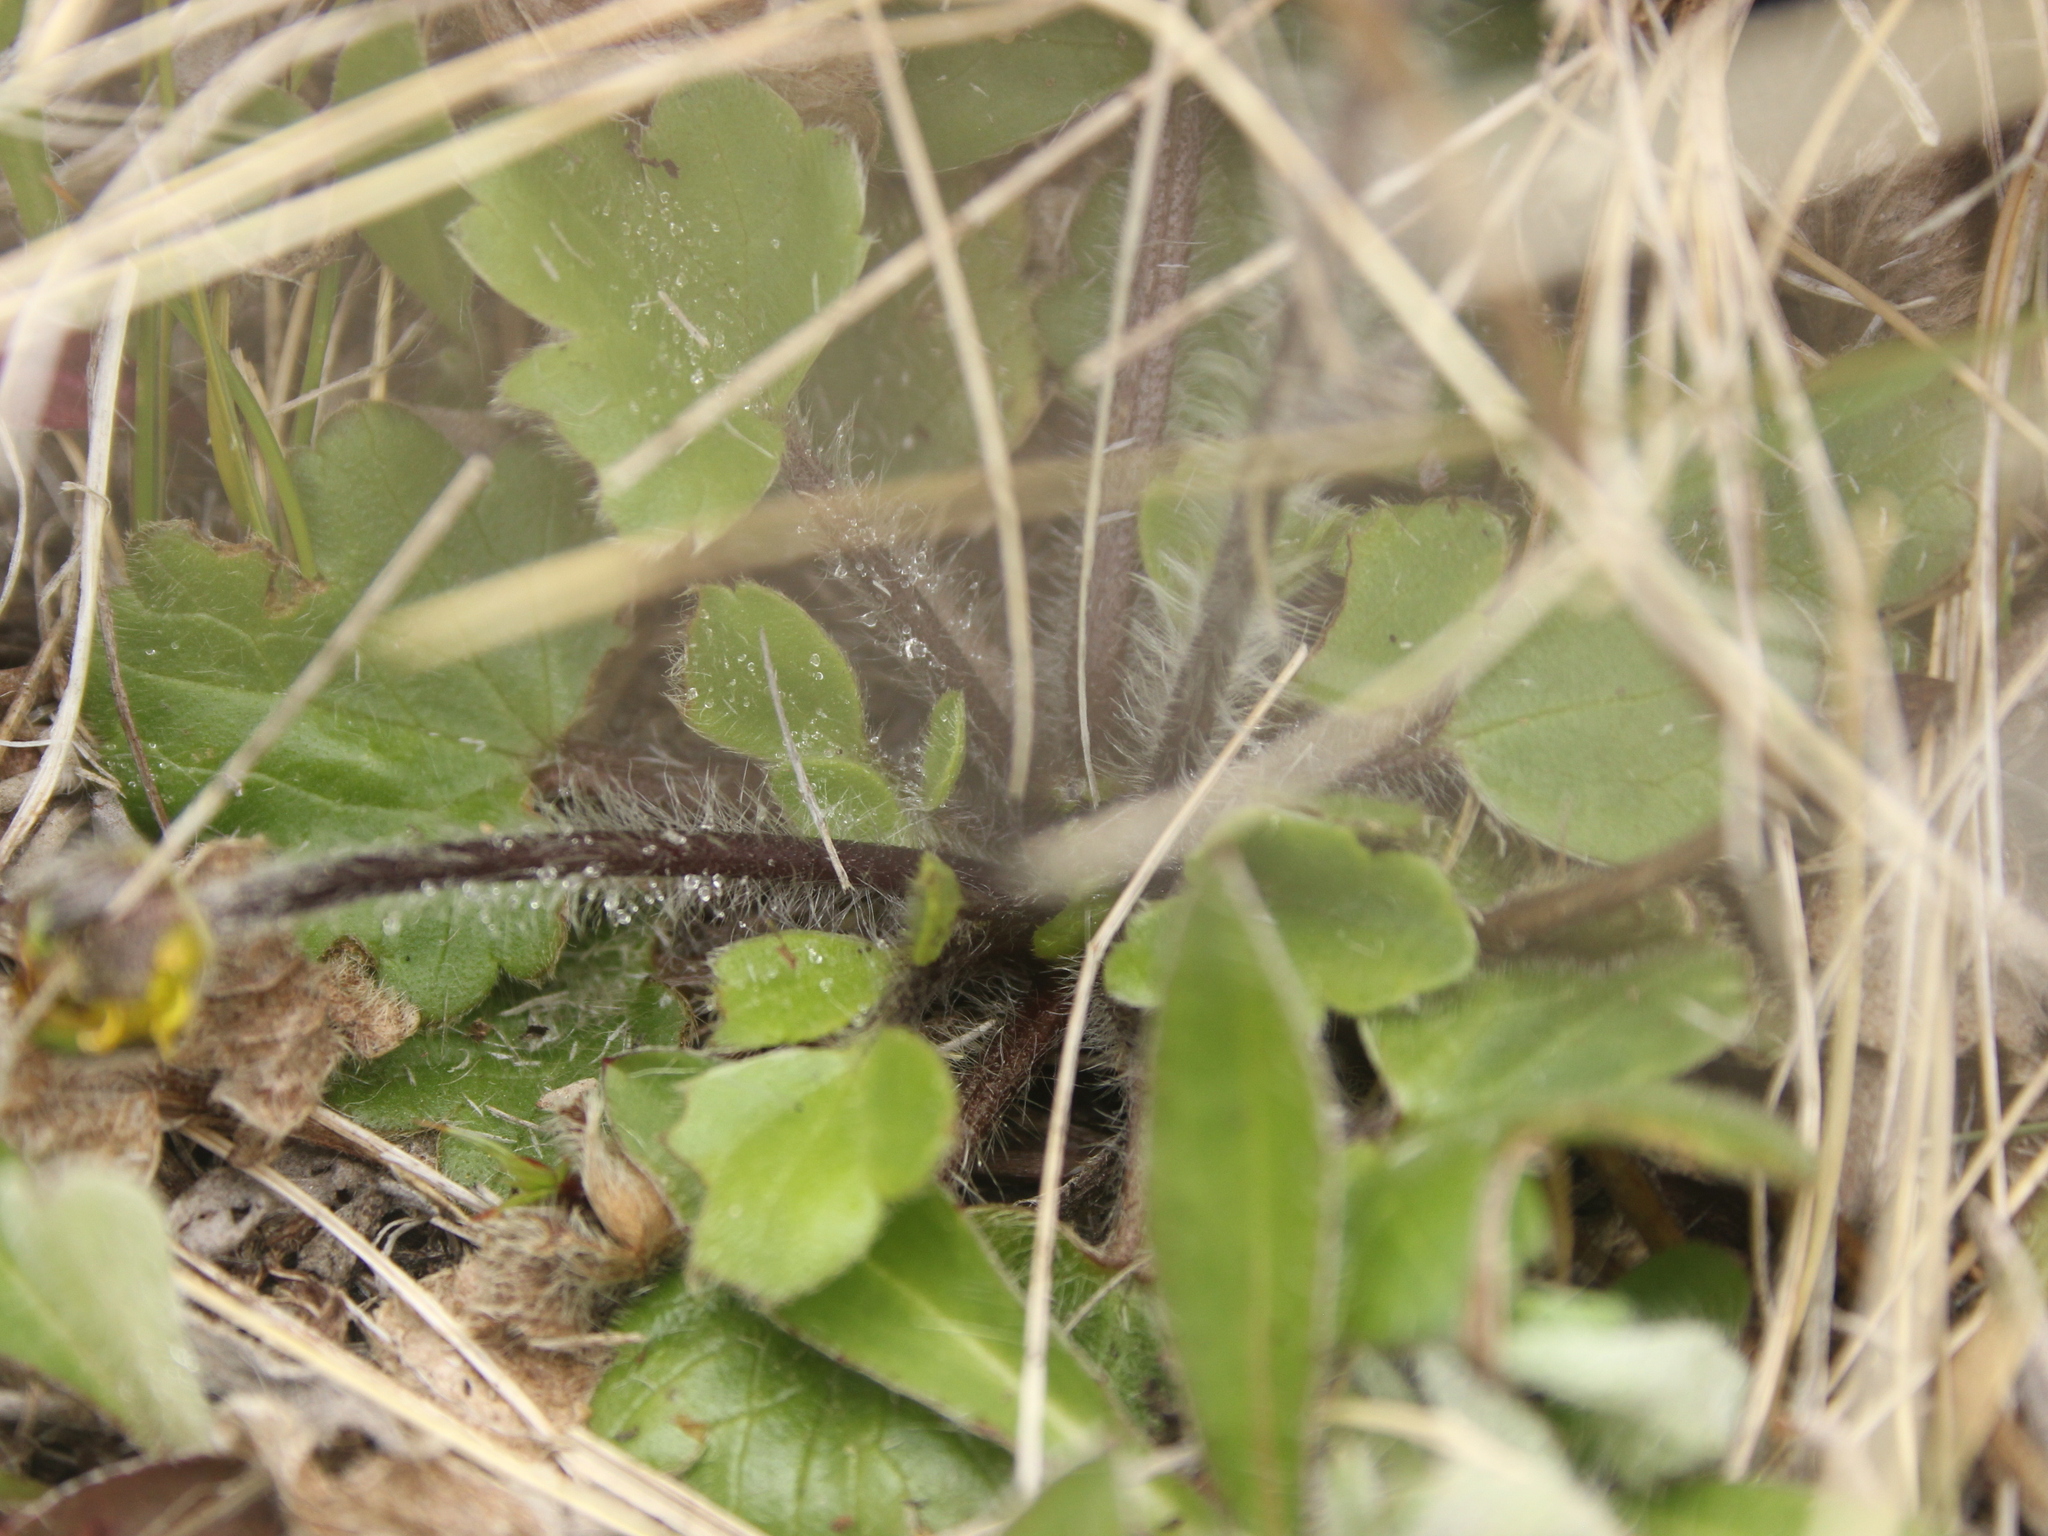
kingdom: Plantae
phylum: Tracheophyta
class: Magnoliopsida
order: Ranunculales
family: Ranunculaceae
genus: Ranunculus
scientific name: Ranunculus multiscapus
